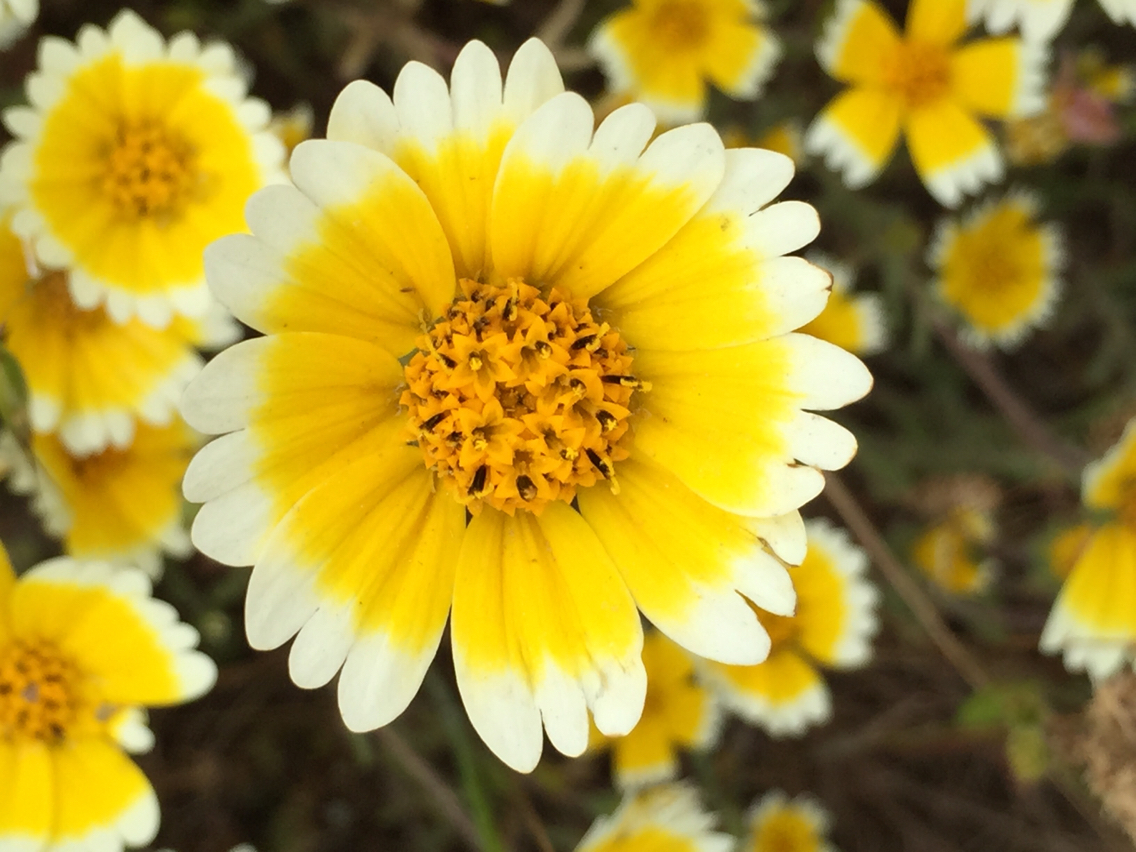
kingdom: Plantae
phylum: Tracheophyta
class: Magnoliopsida
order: Asterales
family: Asteraceae
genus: Layia
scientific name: Layia platyglossa
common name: Tidy-tips
